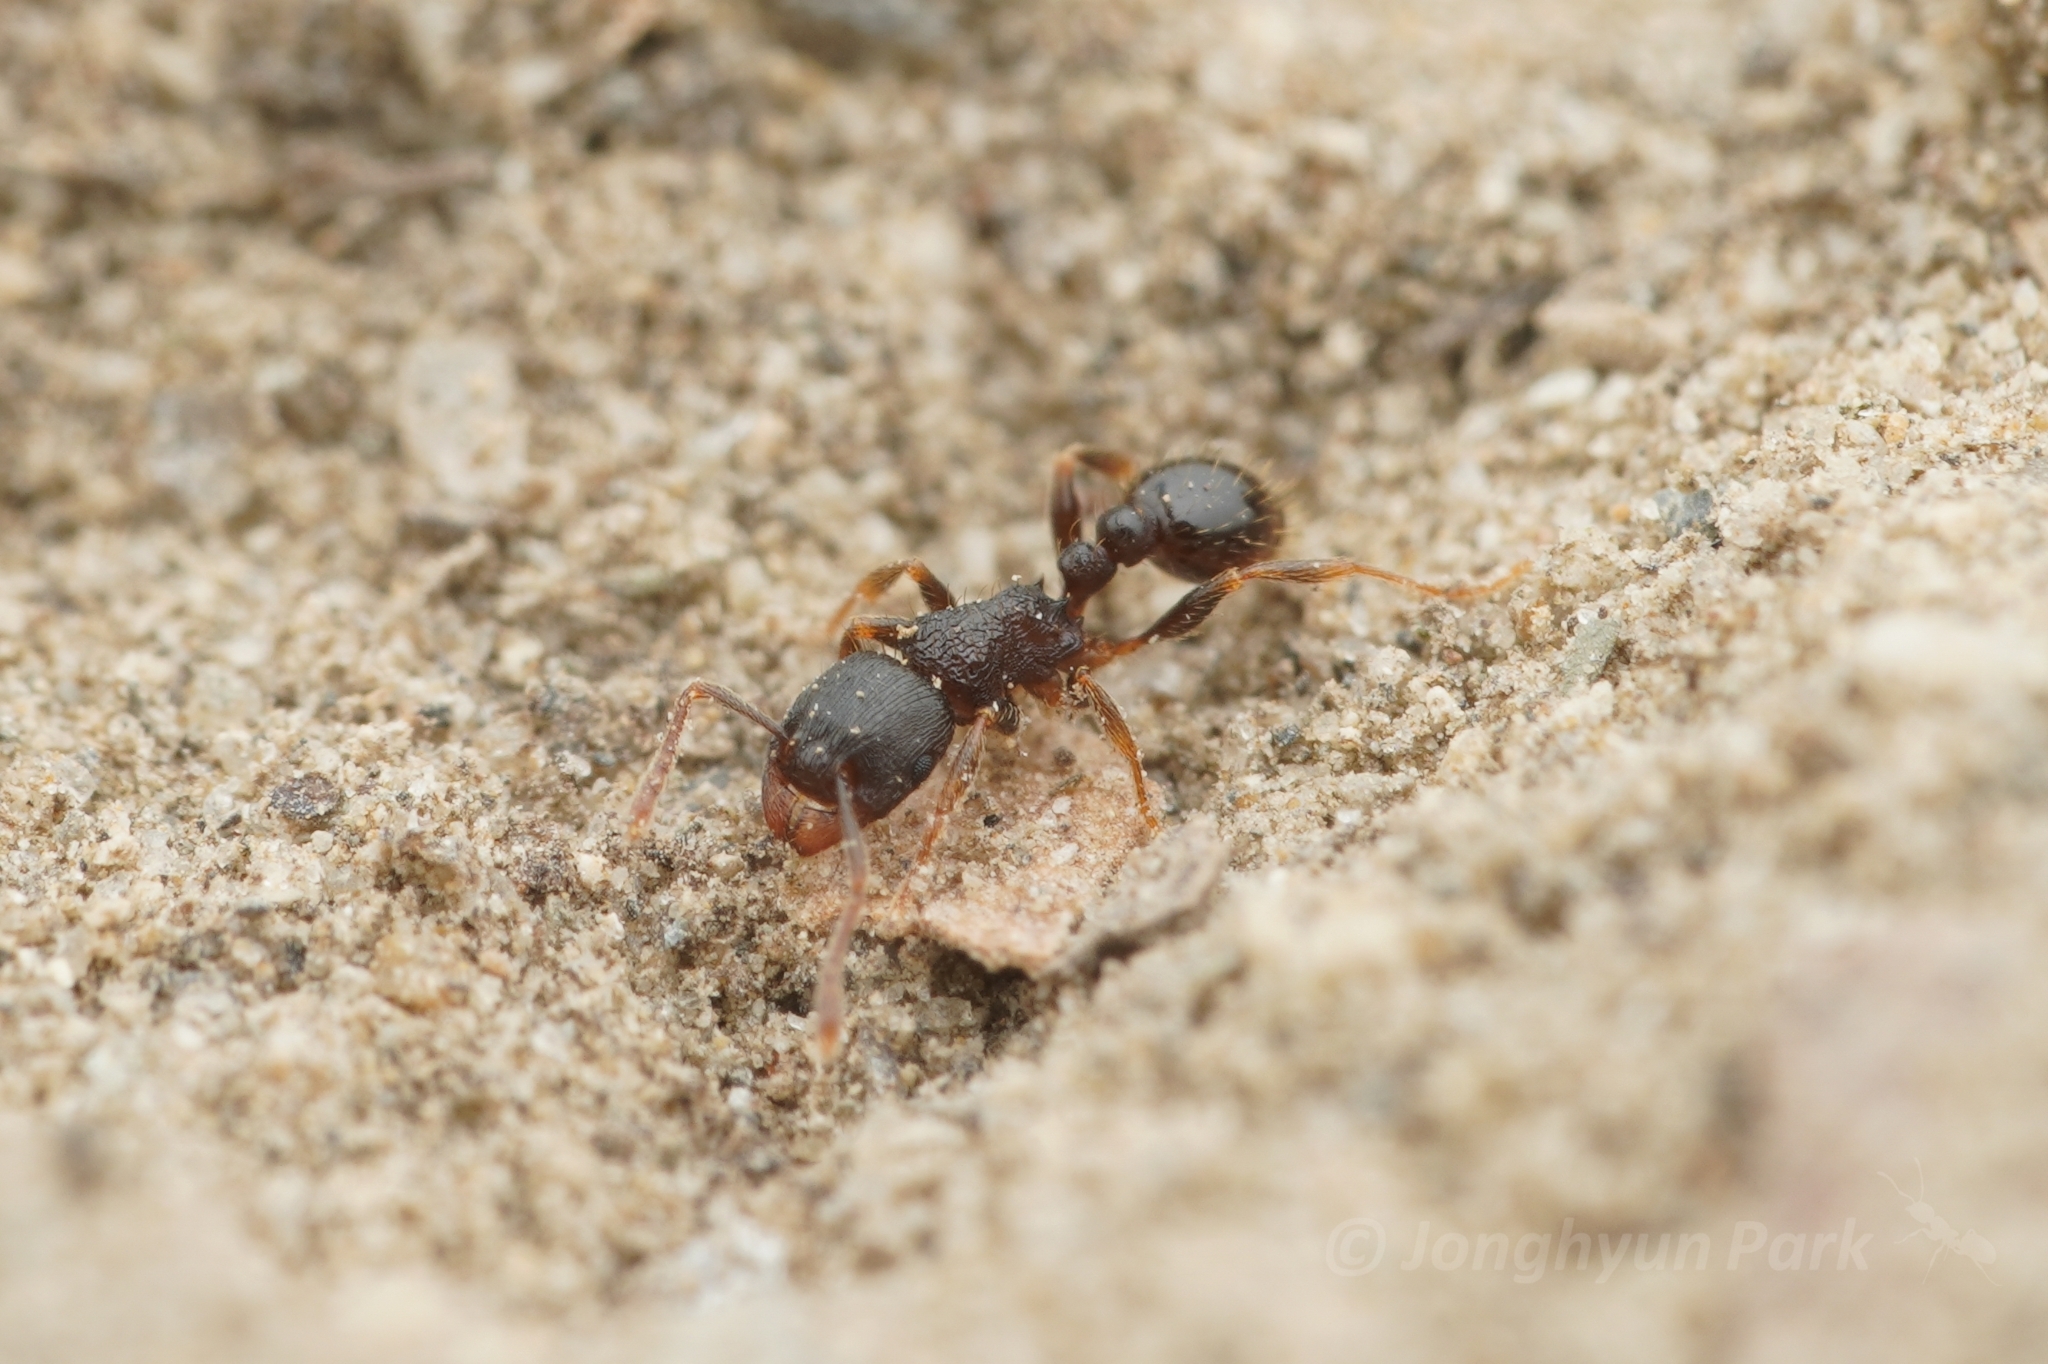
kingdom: Animalia
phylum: Arthropoda
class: Insecta
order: Hymenoptera
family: Formicidae
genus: Tetramorium
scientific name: Tetramorium tsushimae
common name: Ant
